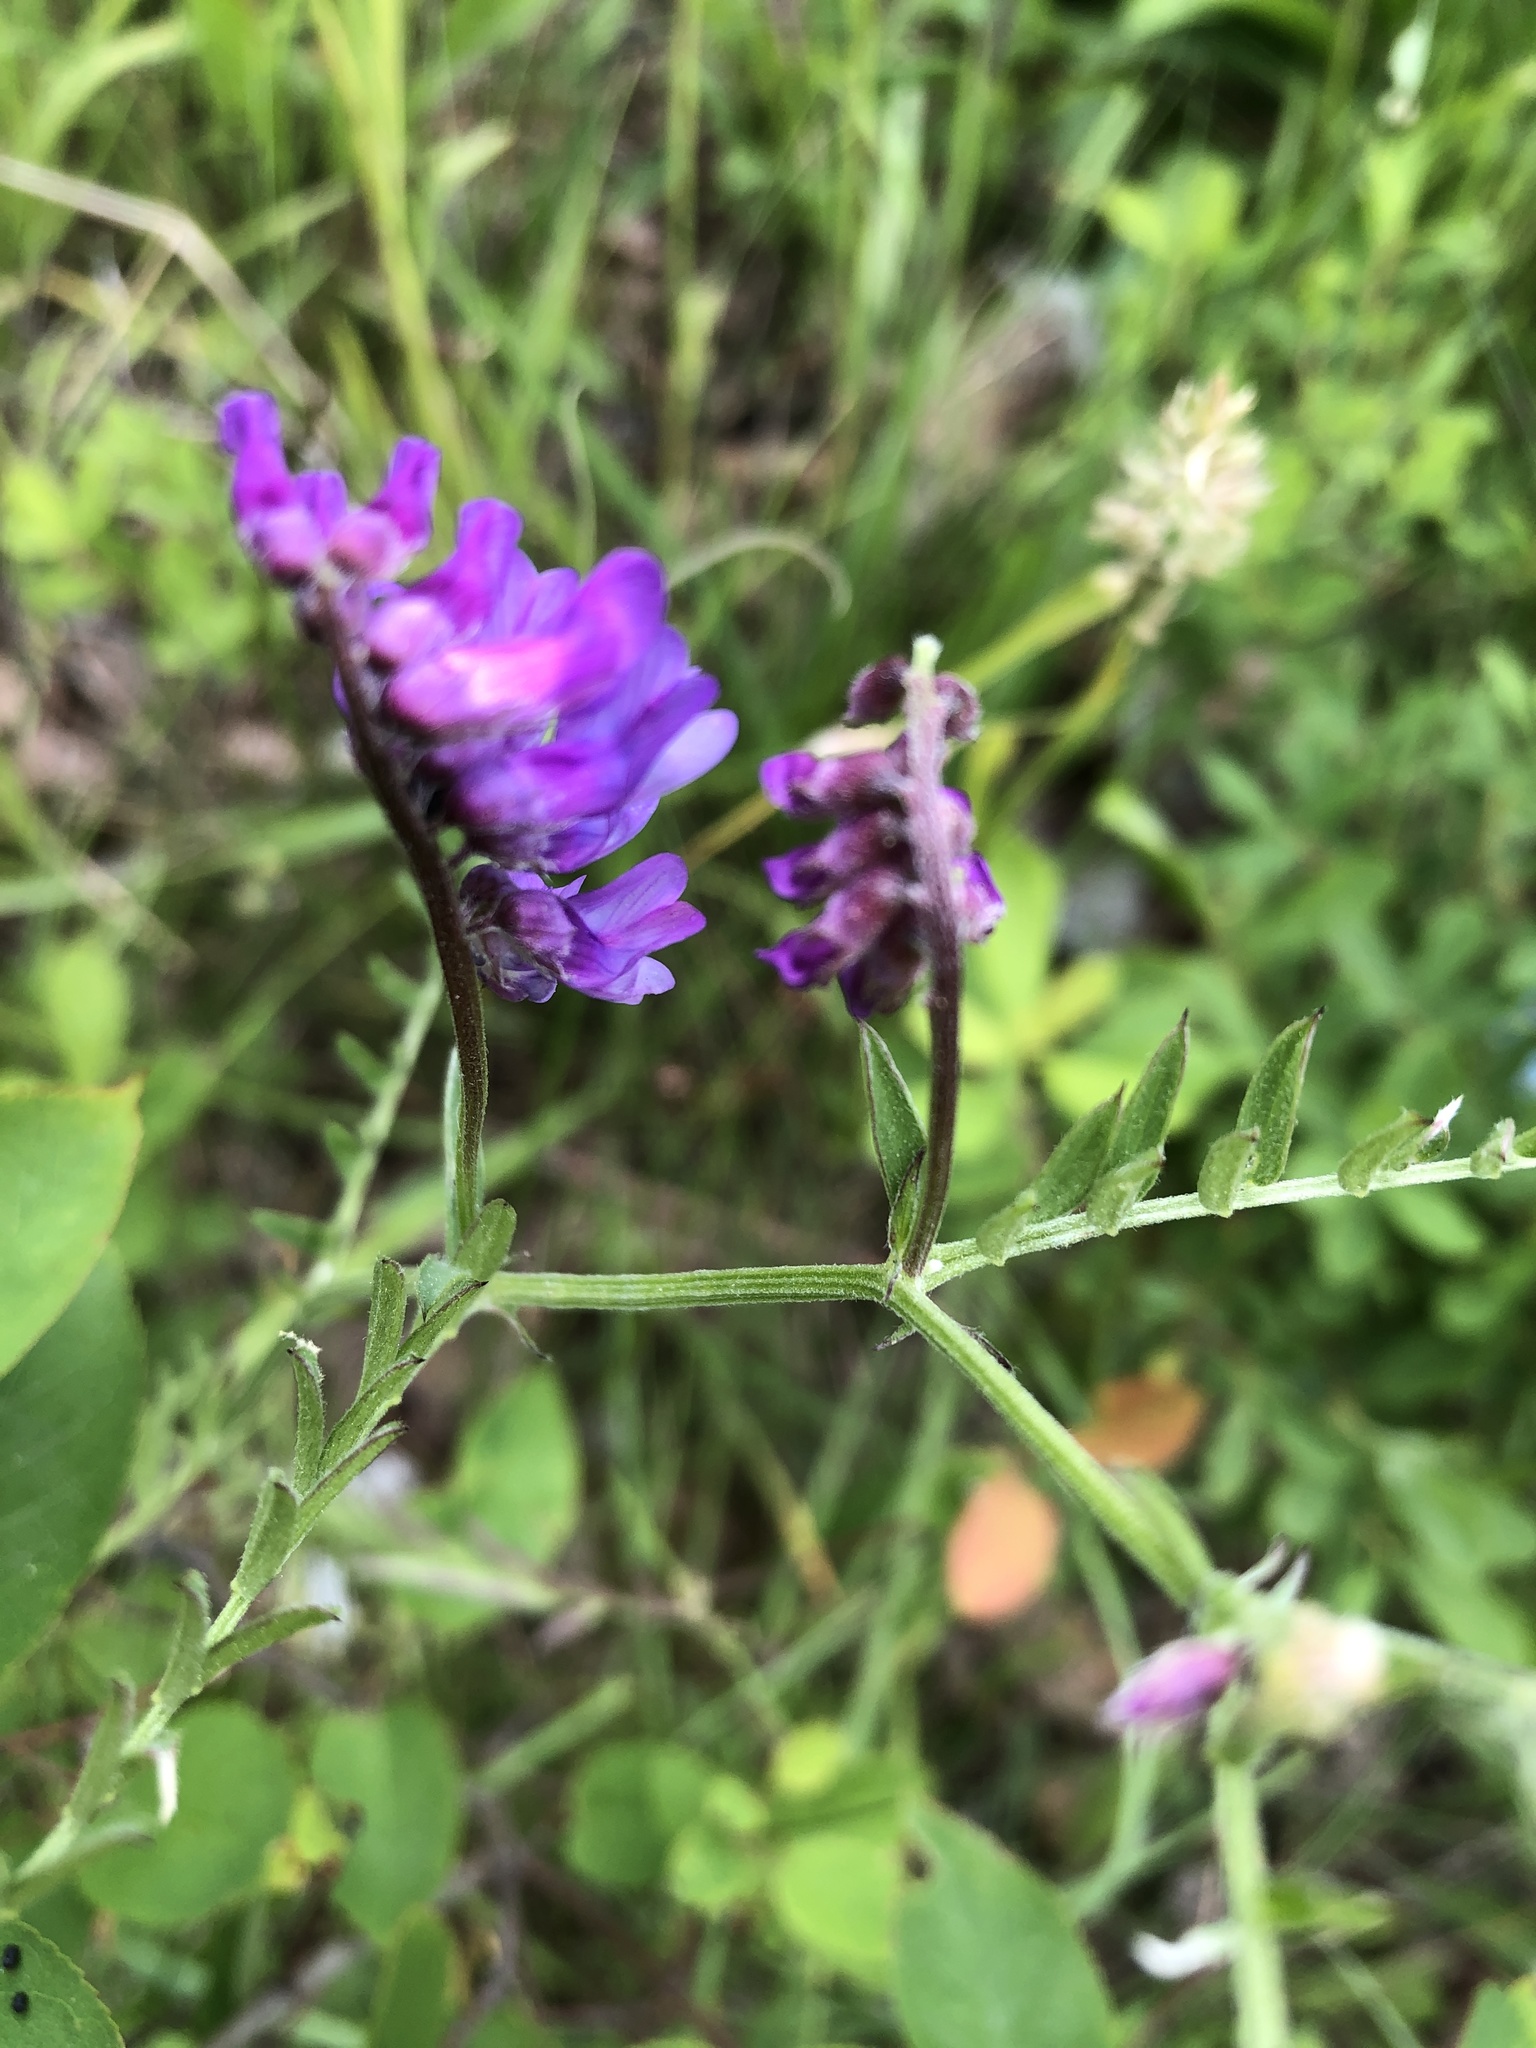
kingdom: Plantae
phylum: Tracheophyta
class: Magnoliopsida
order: Fabales
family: Fabaceae
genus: Vicia
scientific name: Vicia cracca
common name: Bird vetch
